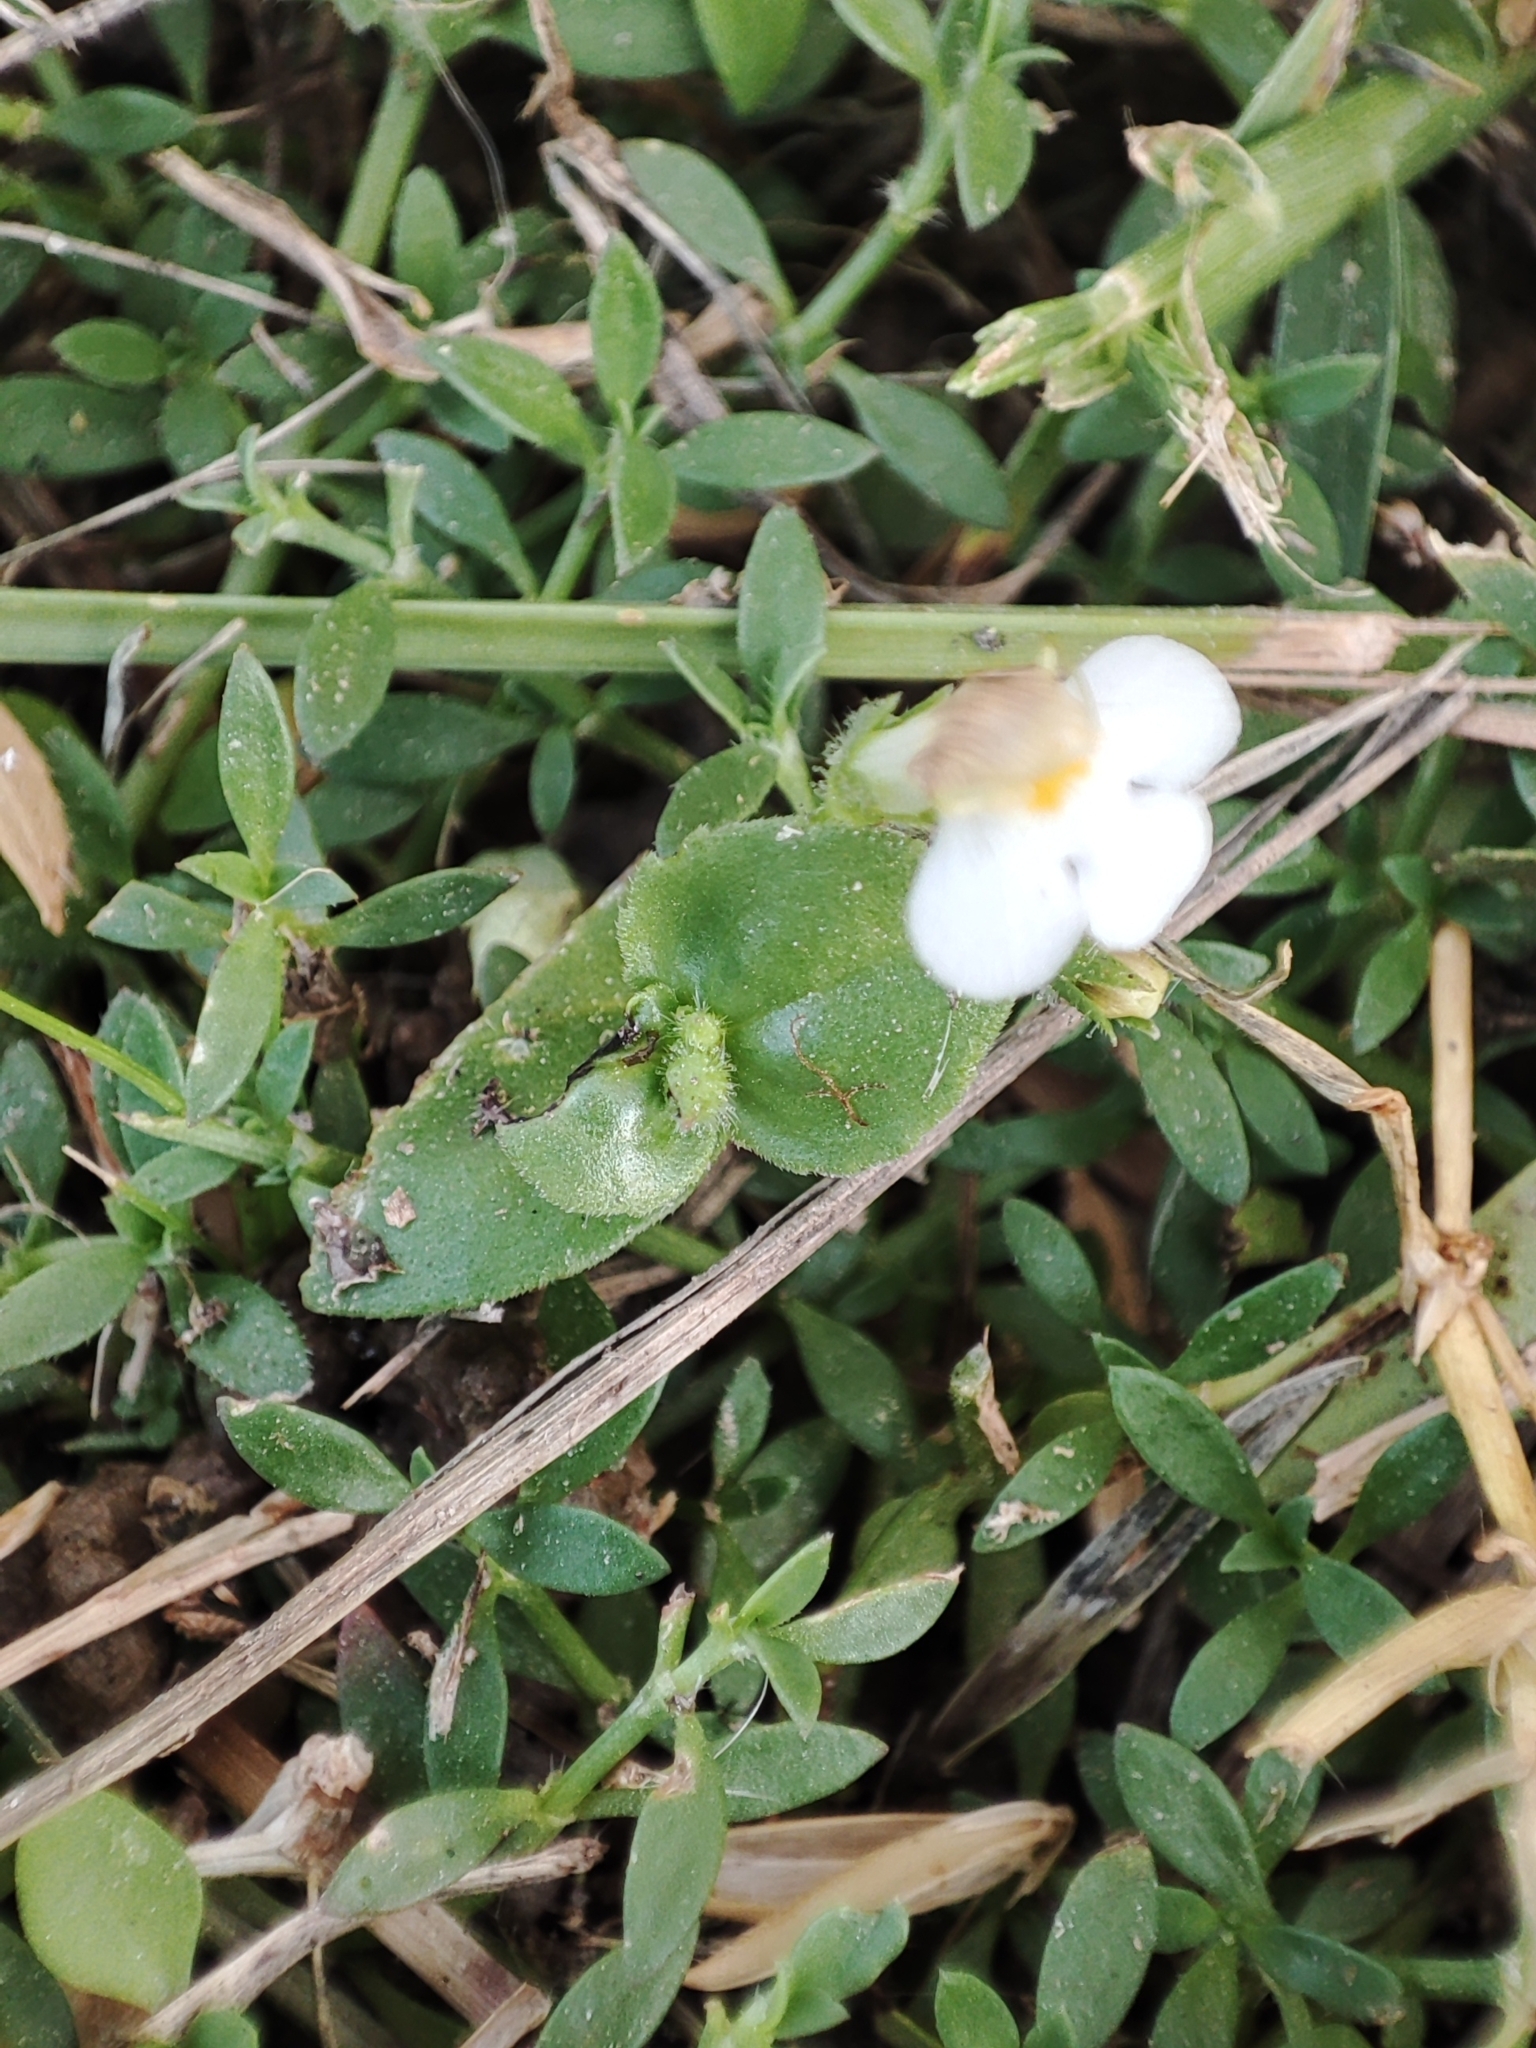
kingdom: Plantae
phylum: Tracheophyta
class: Magnoliopsida
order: Lamiales
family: Linderniaceae
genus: Yamazakia
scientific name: Yamazakia pusilla
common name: Tiny slitwort
